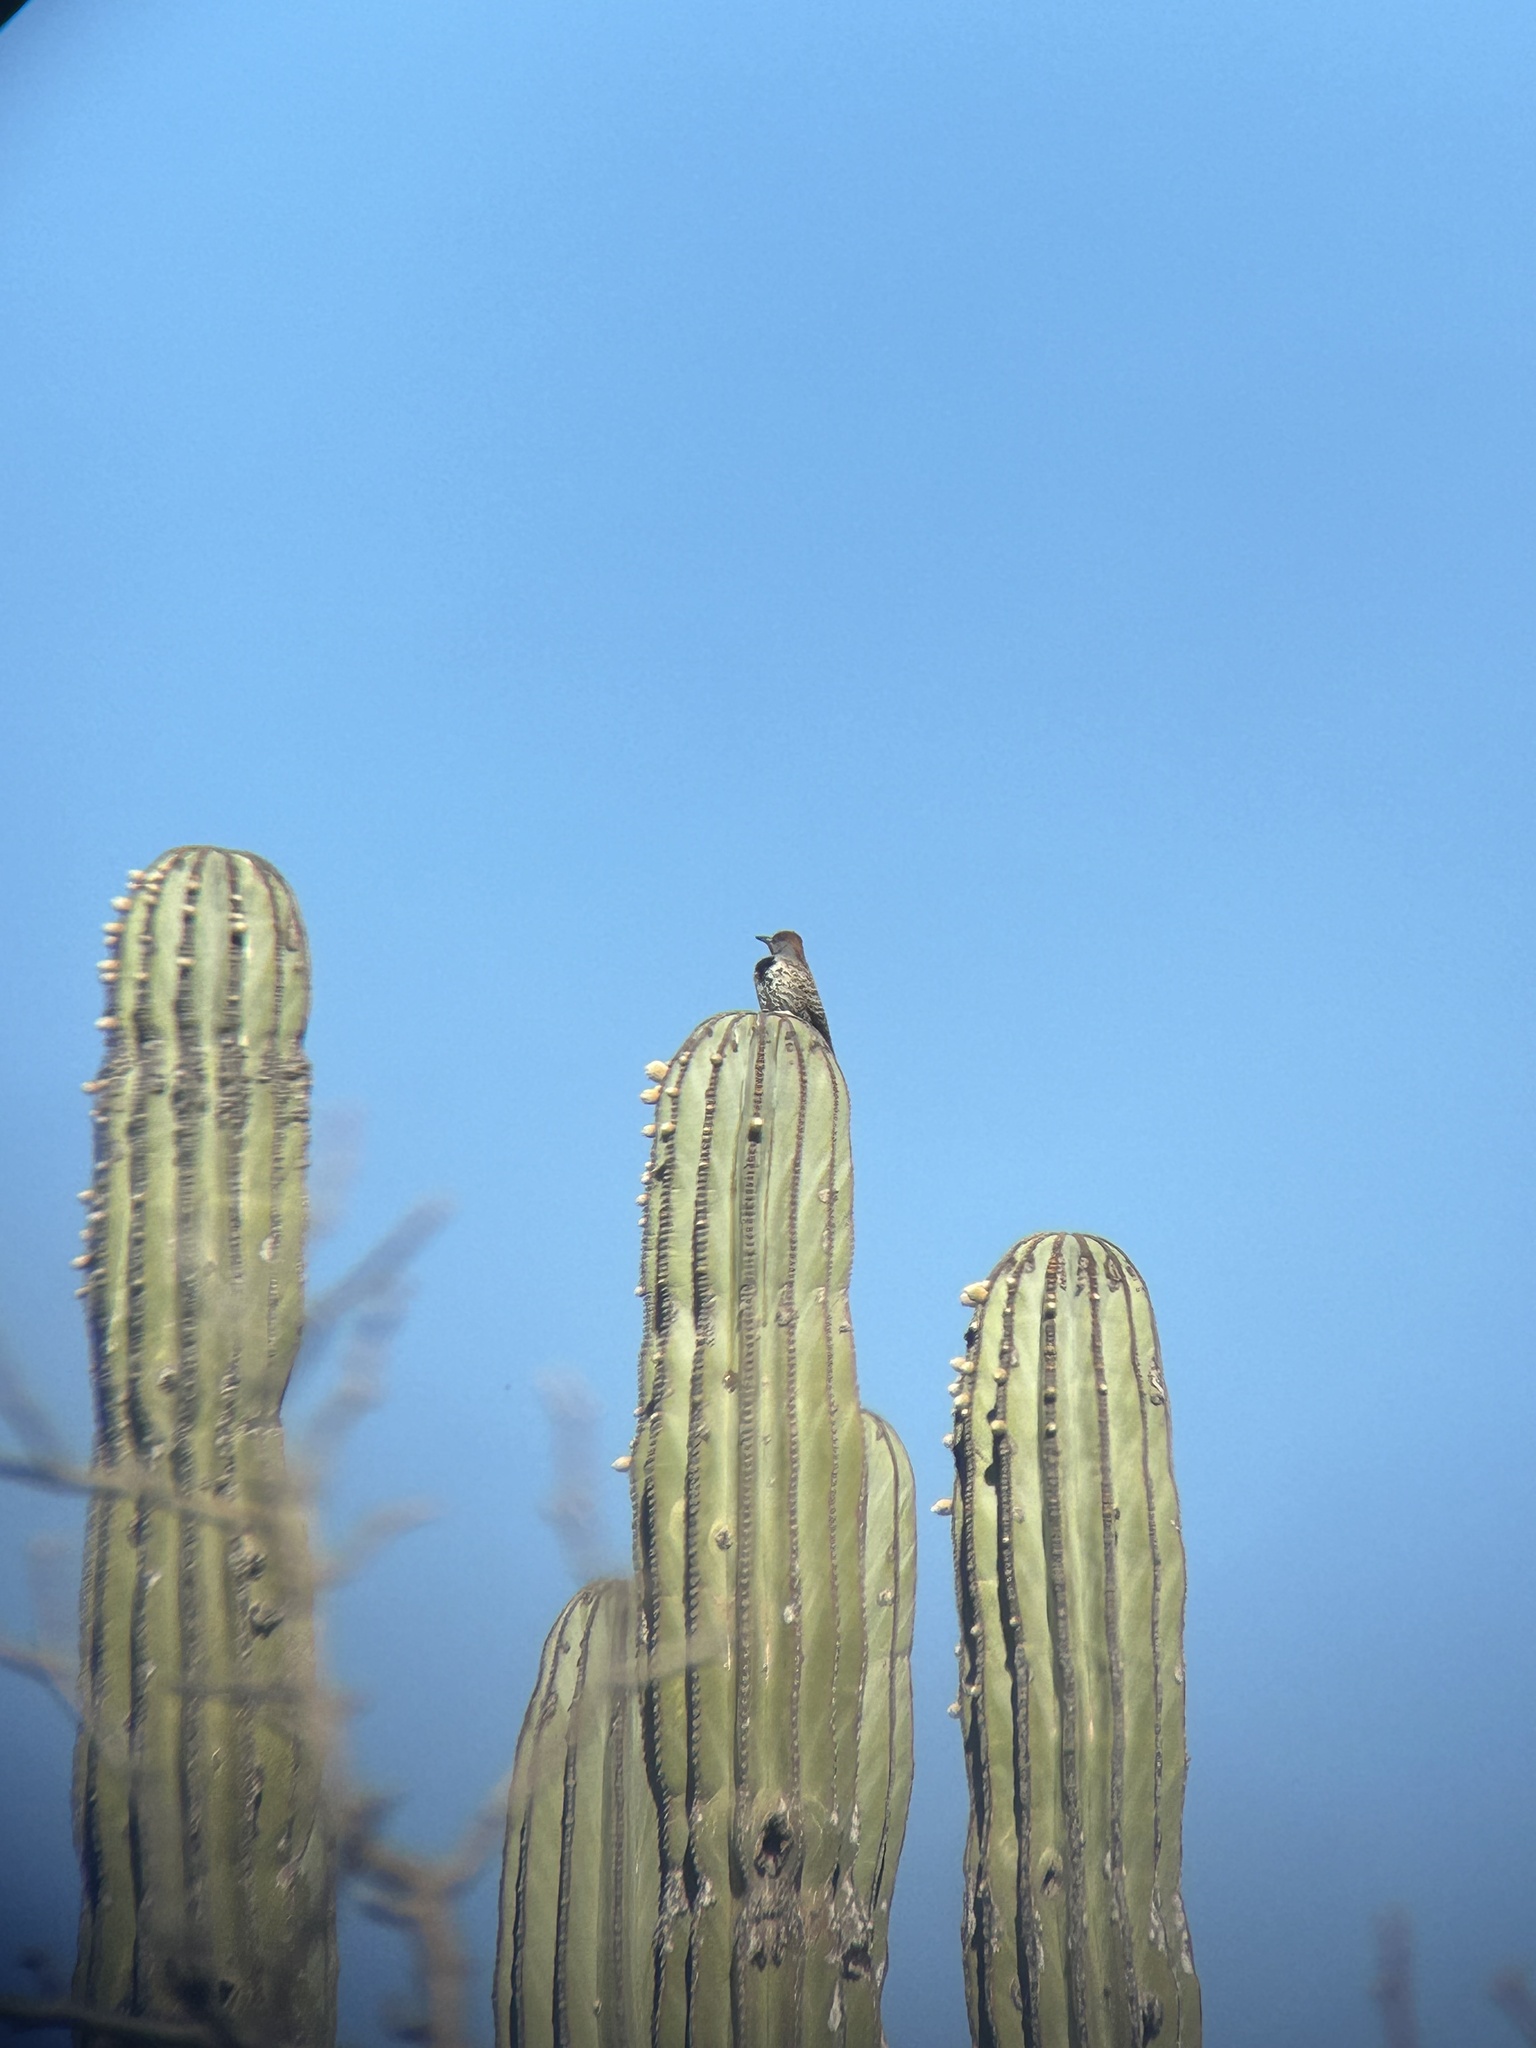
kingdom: Animalia
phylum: Chordata
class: Aves
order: Piciformes
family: Picidae
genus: Colaptes
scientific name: Colaptes chrysoides
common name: Gilded flicker
